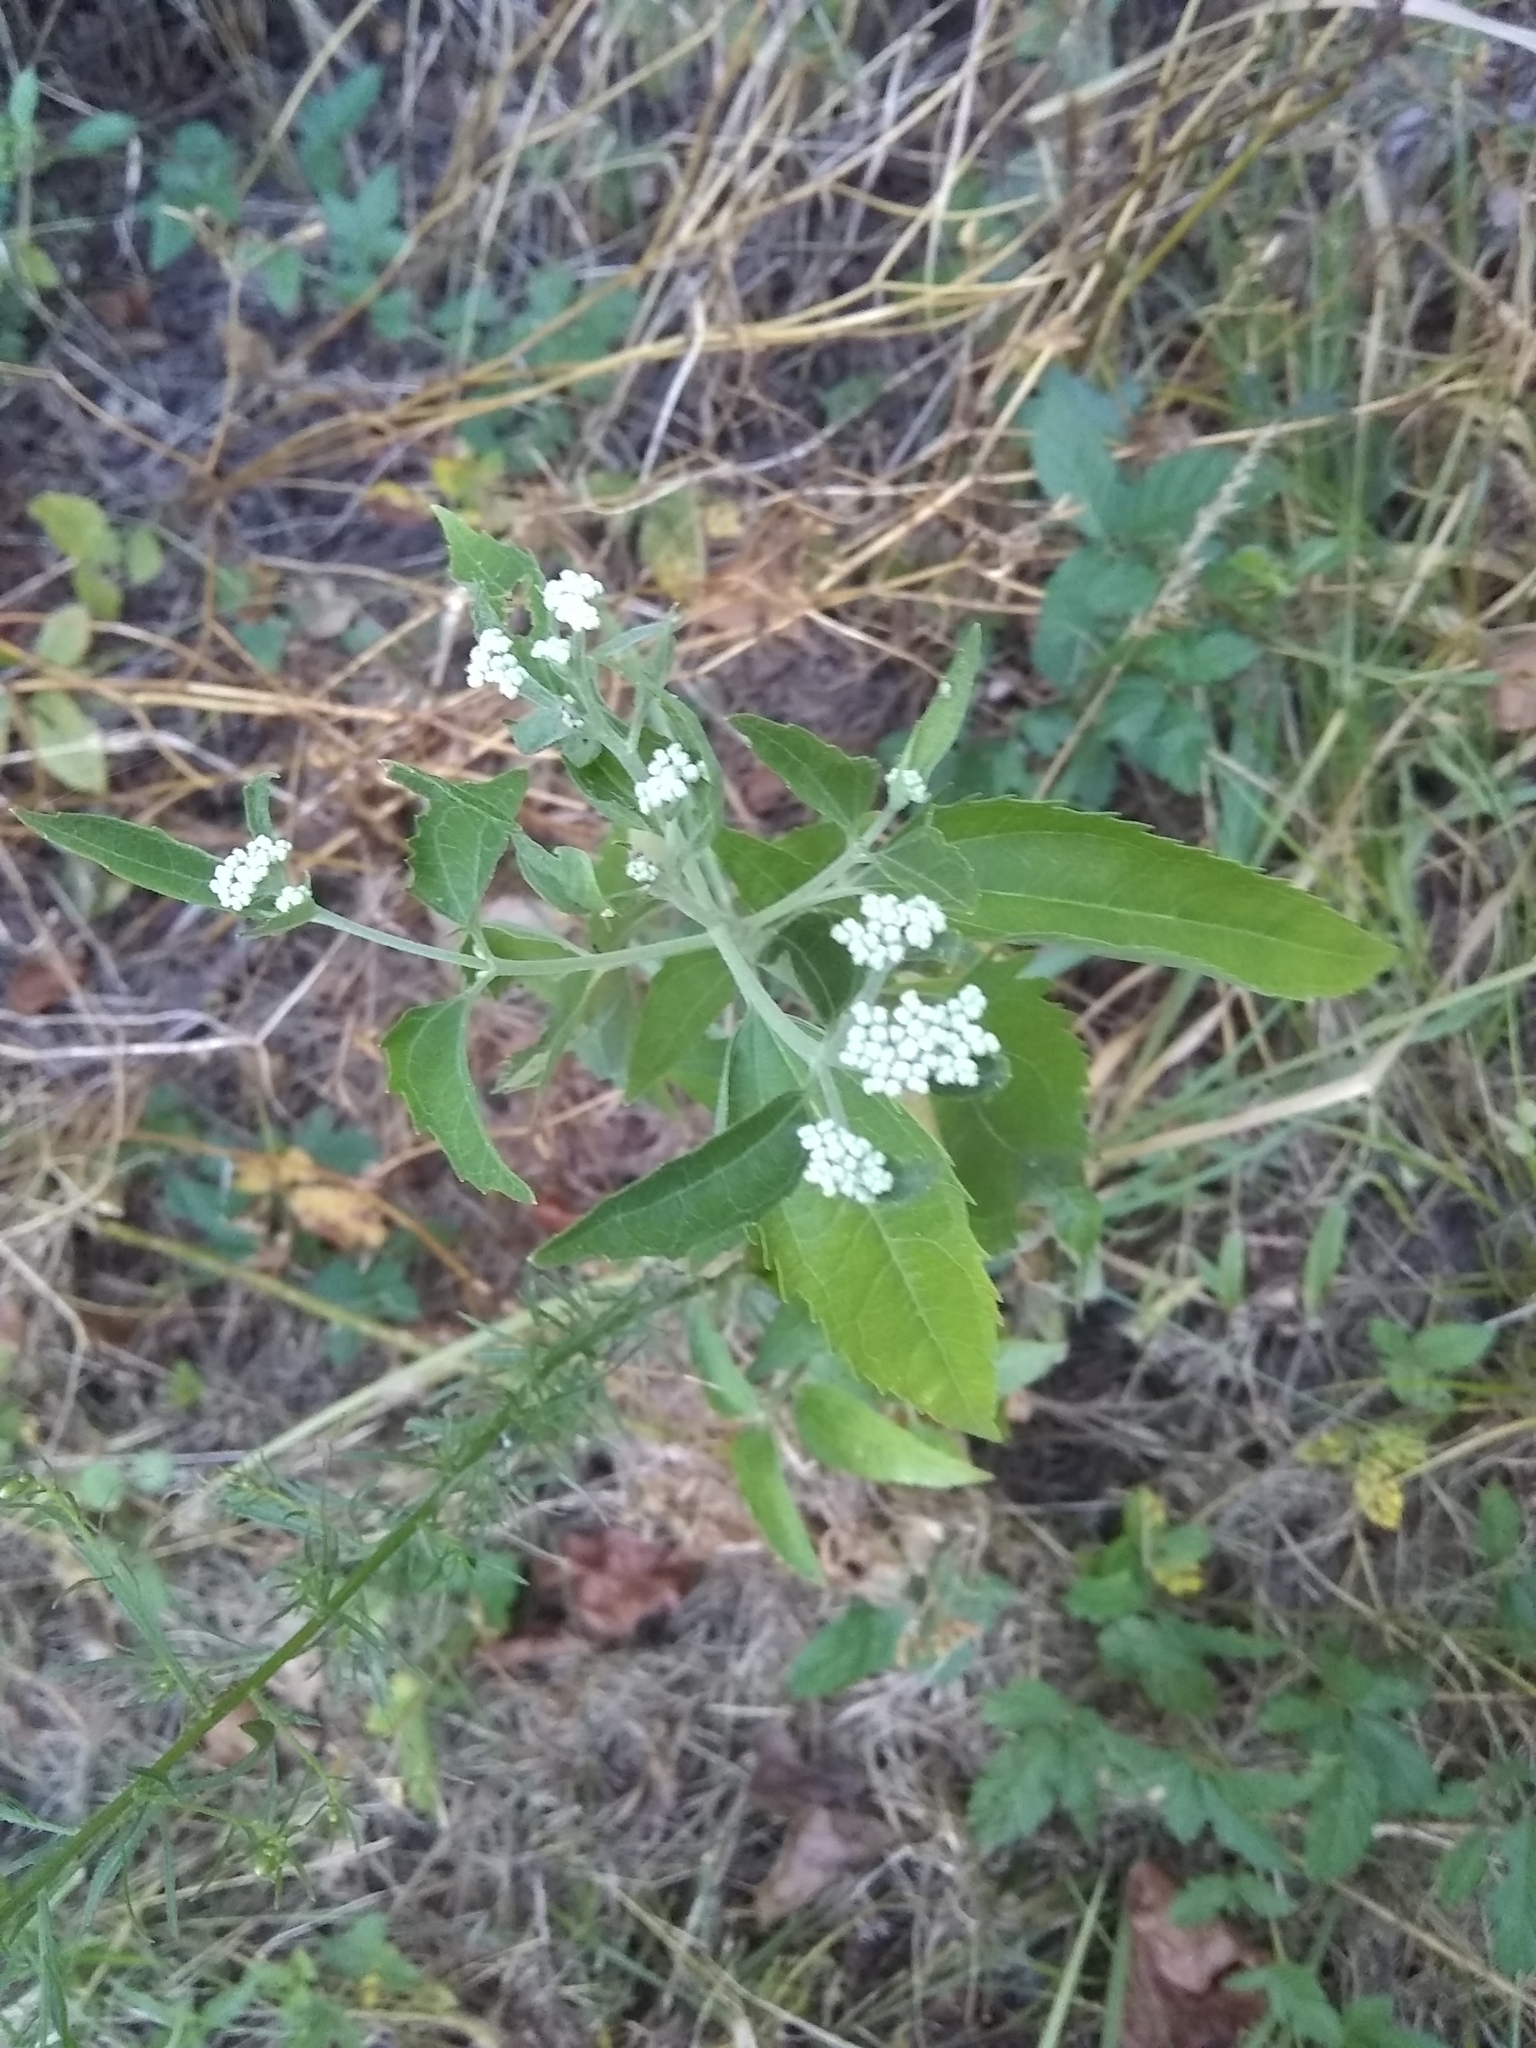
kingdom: Plantae
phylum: Tracheophyta
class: Magnoliopsida
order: Asterales
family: Asteraceae
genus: Eupatorium
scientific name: Eupatorium serotinum
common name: Late boneset
